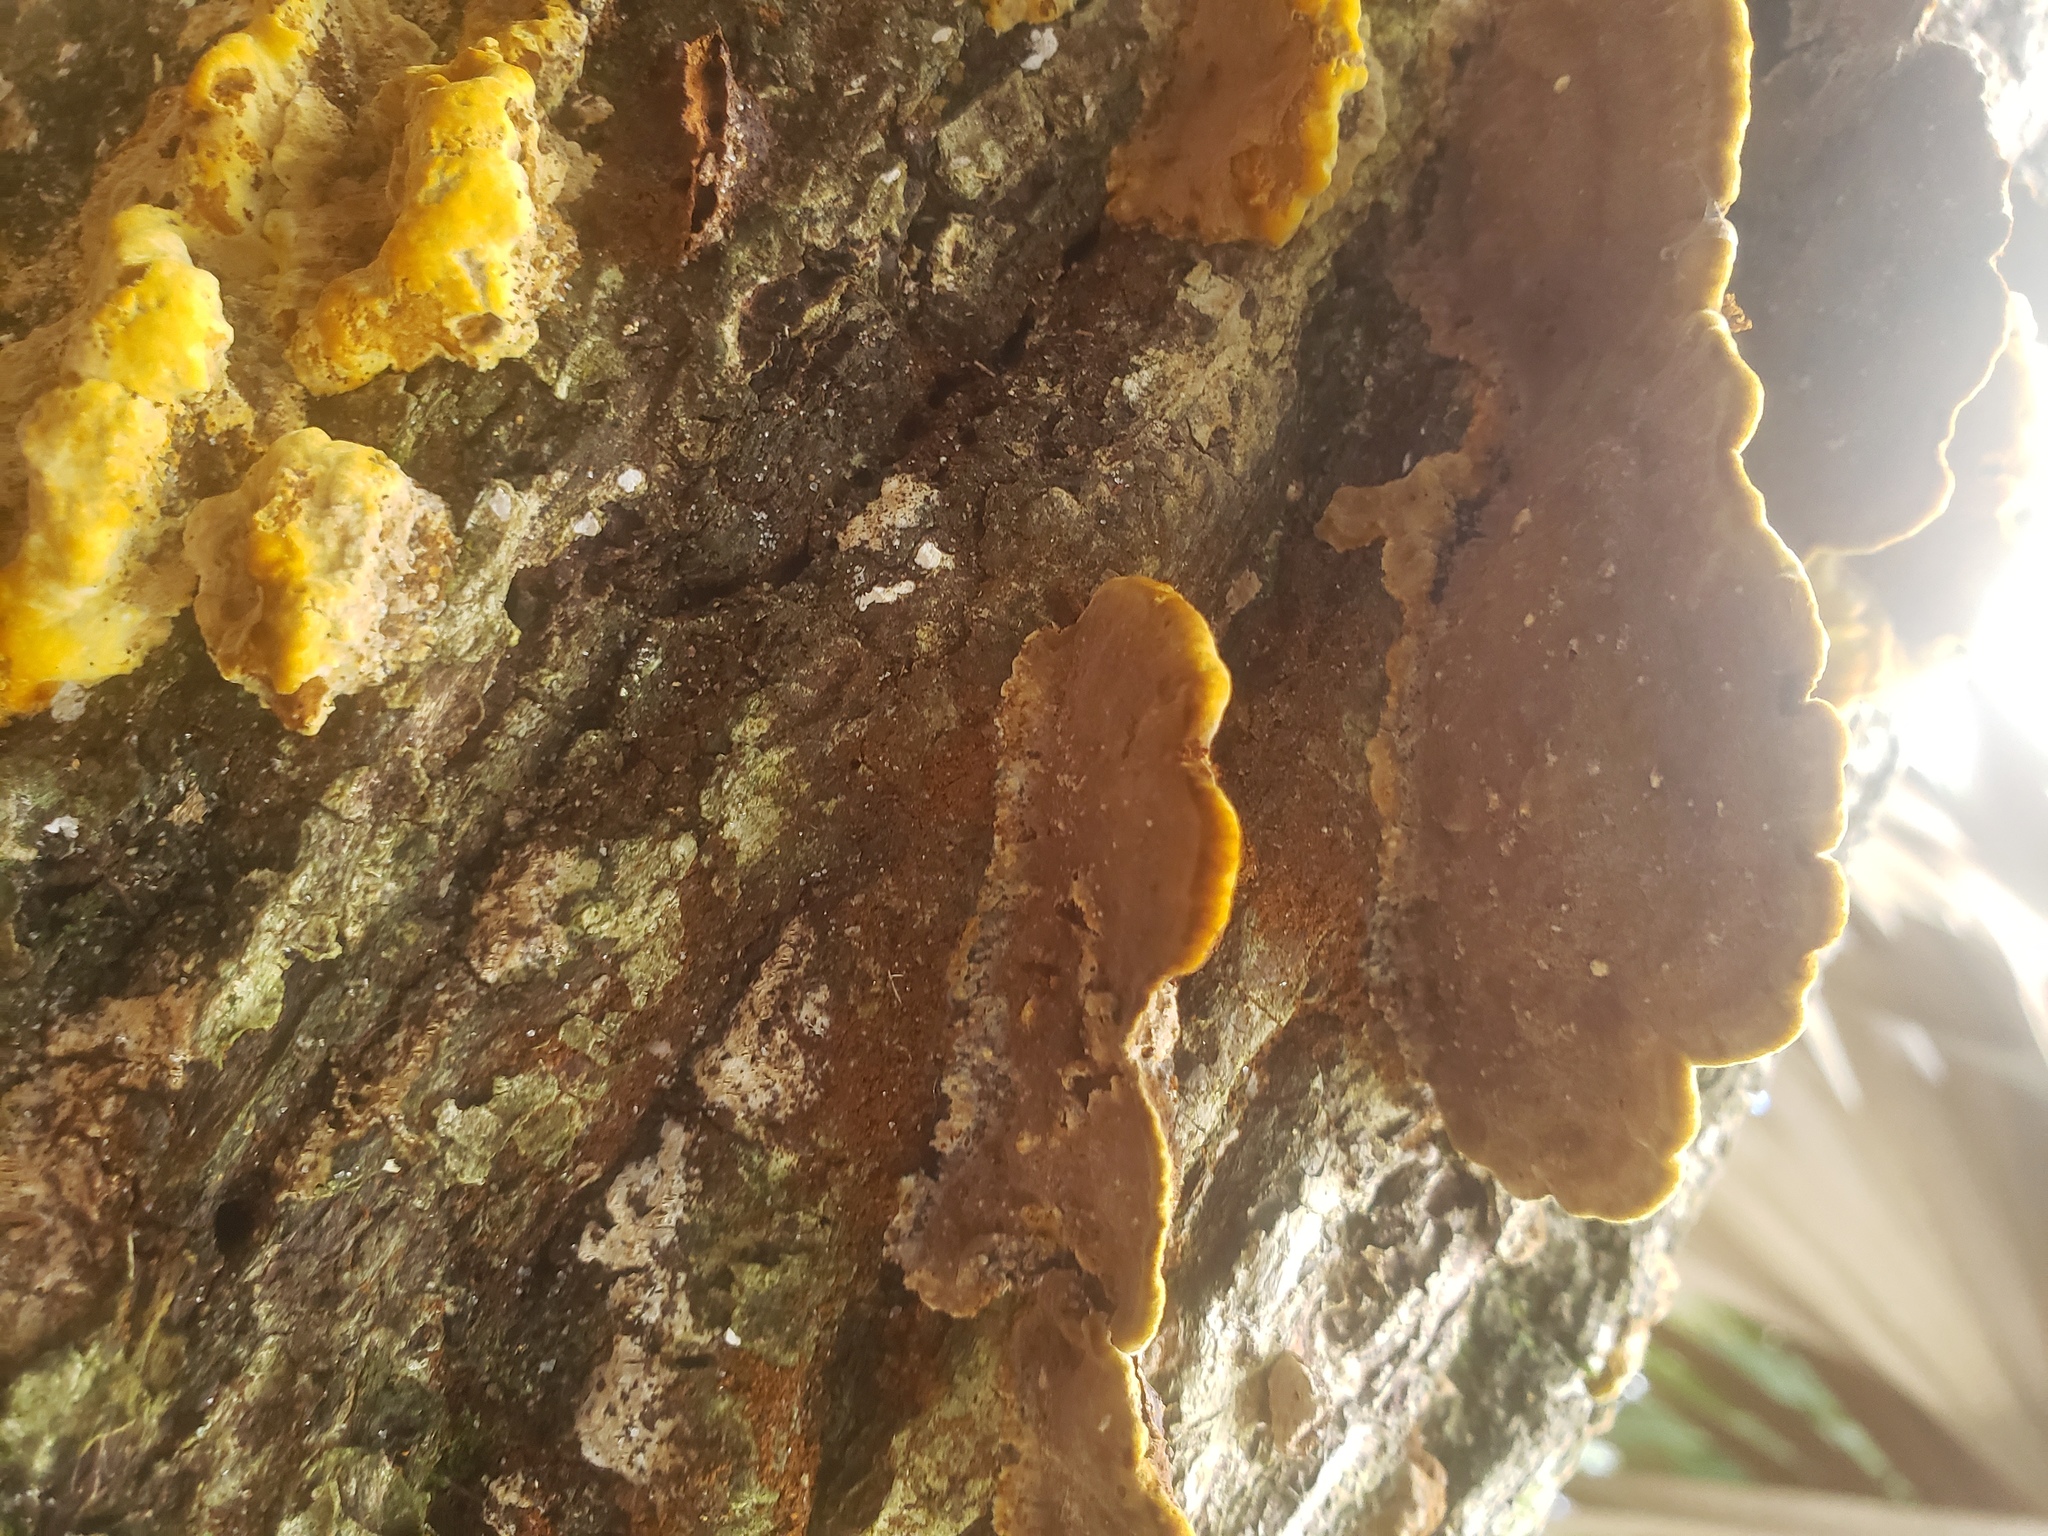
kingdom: Fungi
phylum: Basidiomycota
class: Agaricomycetes
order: Hymenochaetales
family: Hymenochaetaceae
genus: Phellinus
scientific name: Phellinus gilvus
